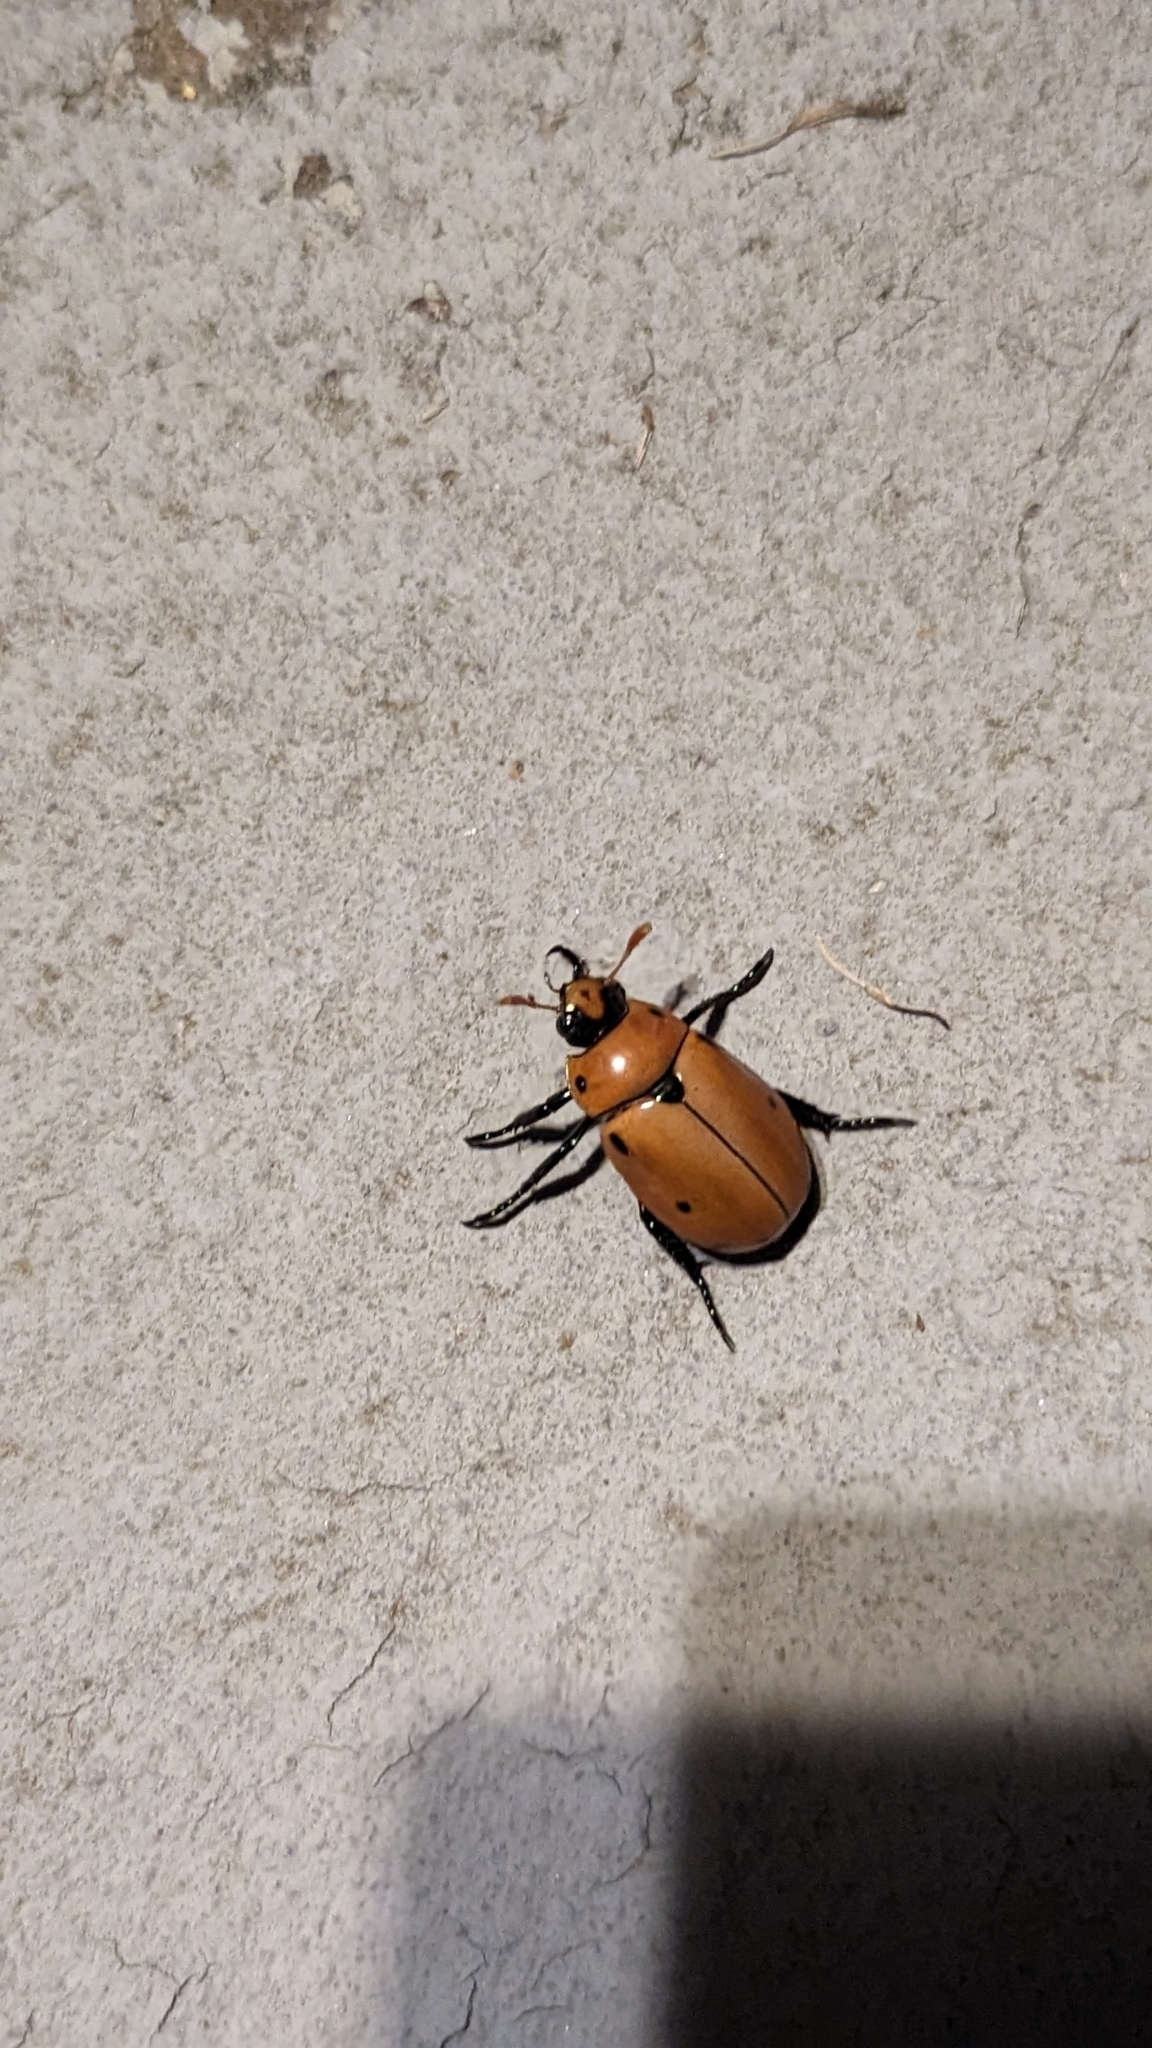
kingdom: Animalia
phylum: Arthropoda
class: Insecta
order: Coleoptera
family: Scarabaeidae
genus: Pelidnota
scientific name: Pelidnota punctata
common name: Grapevine beetle
